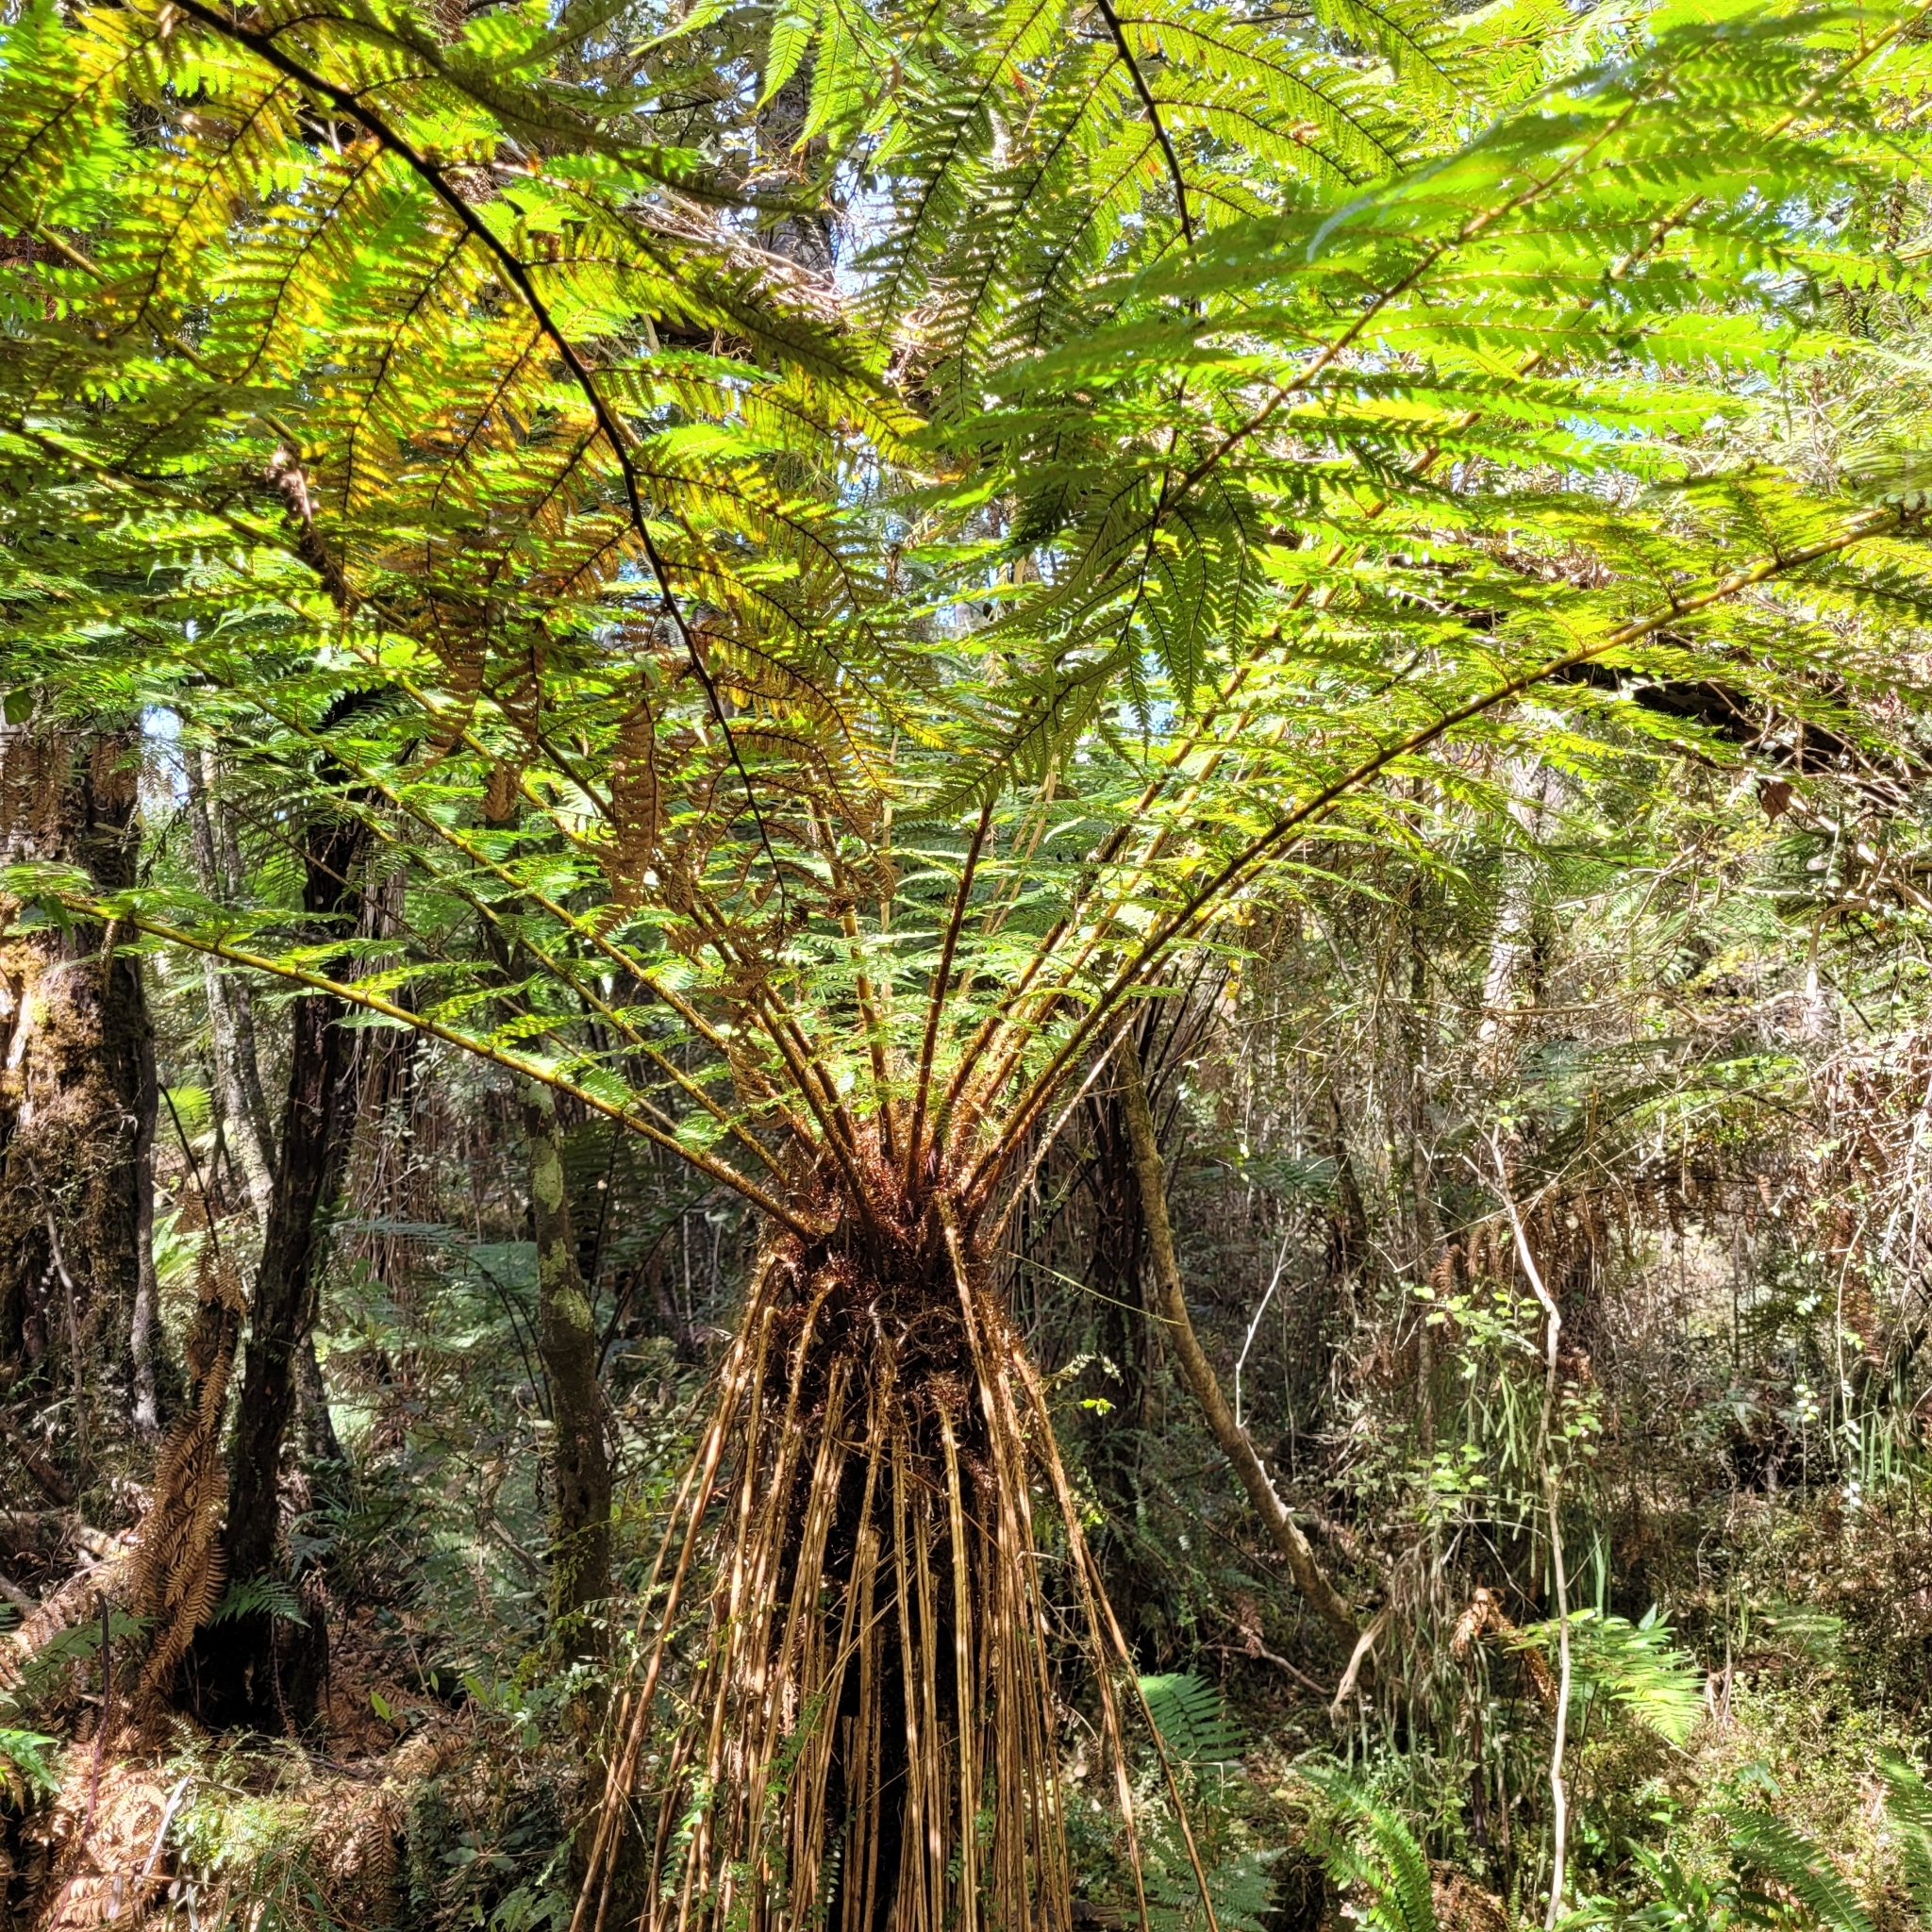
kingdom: Plantae
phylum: Tracheophyta
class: Polypodiopsida
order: Cyatheales
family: Cyatheaceae
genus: Alsophila
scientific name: Alsophila smithii
